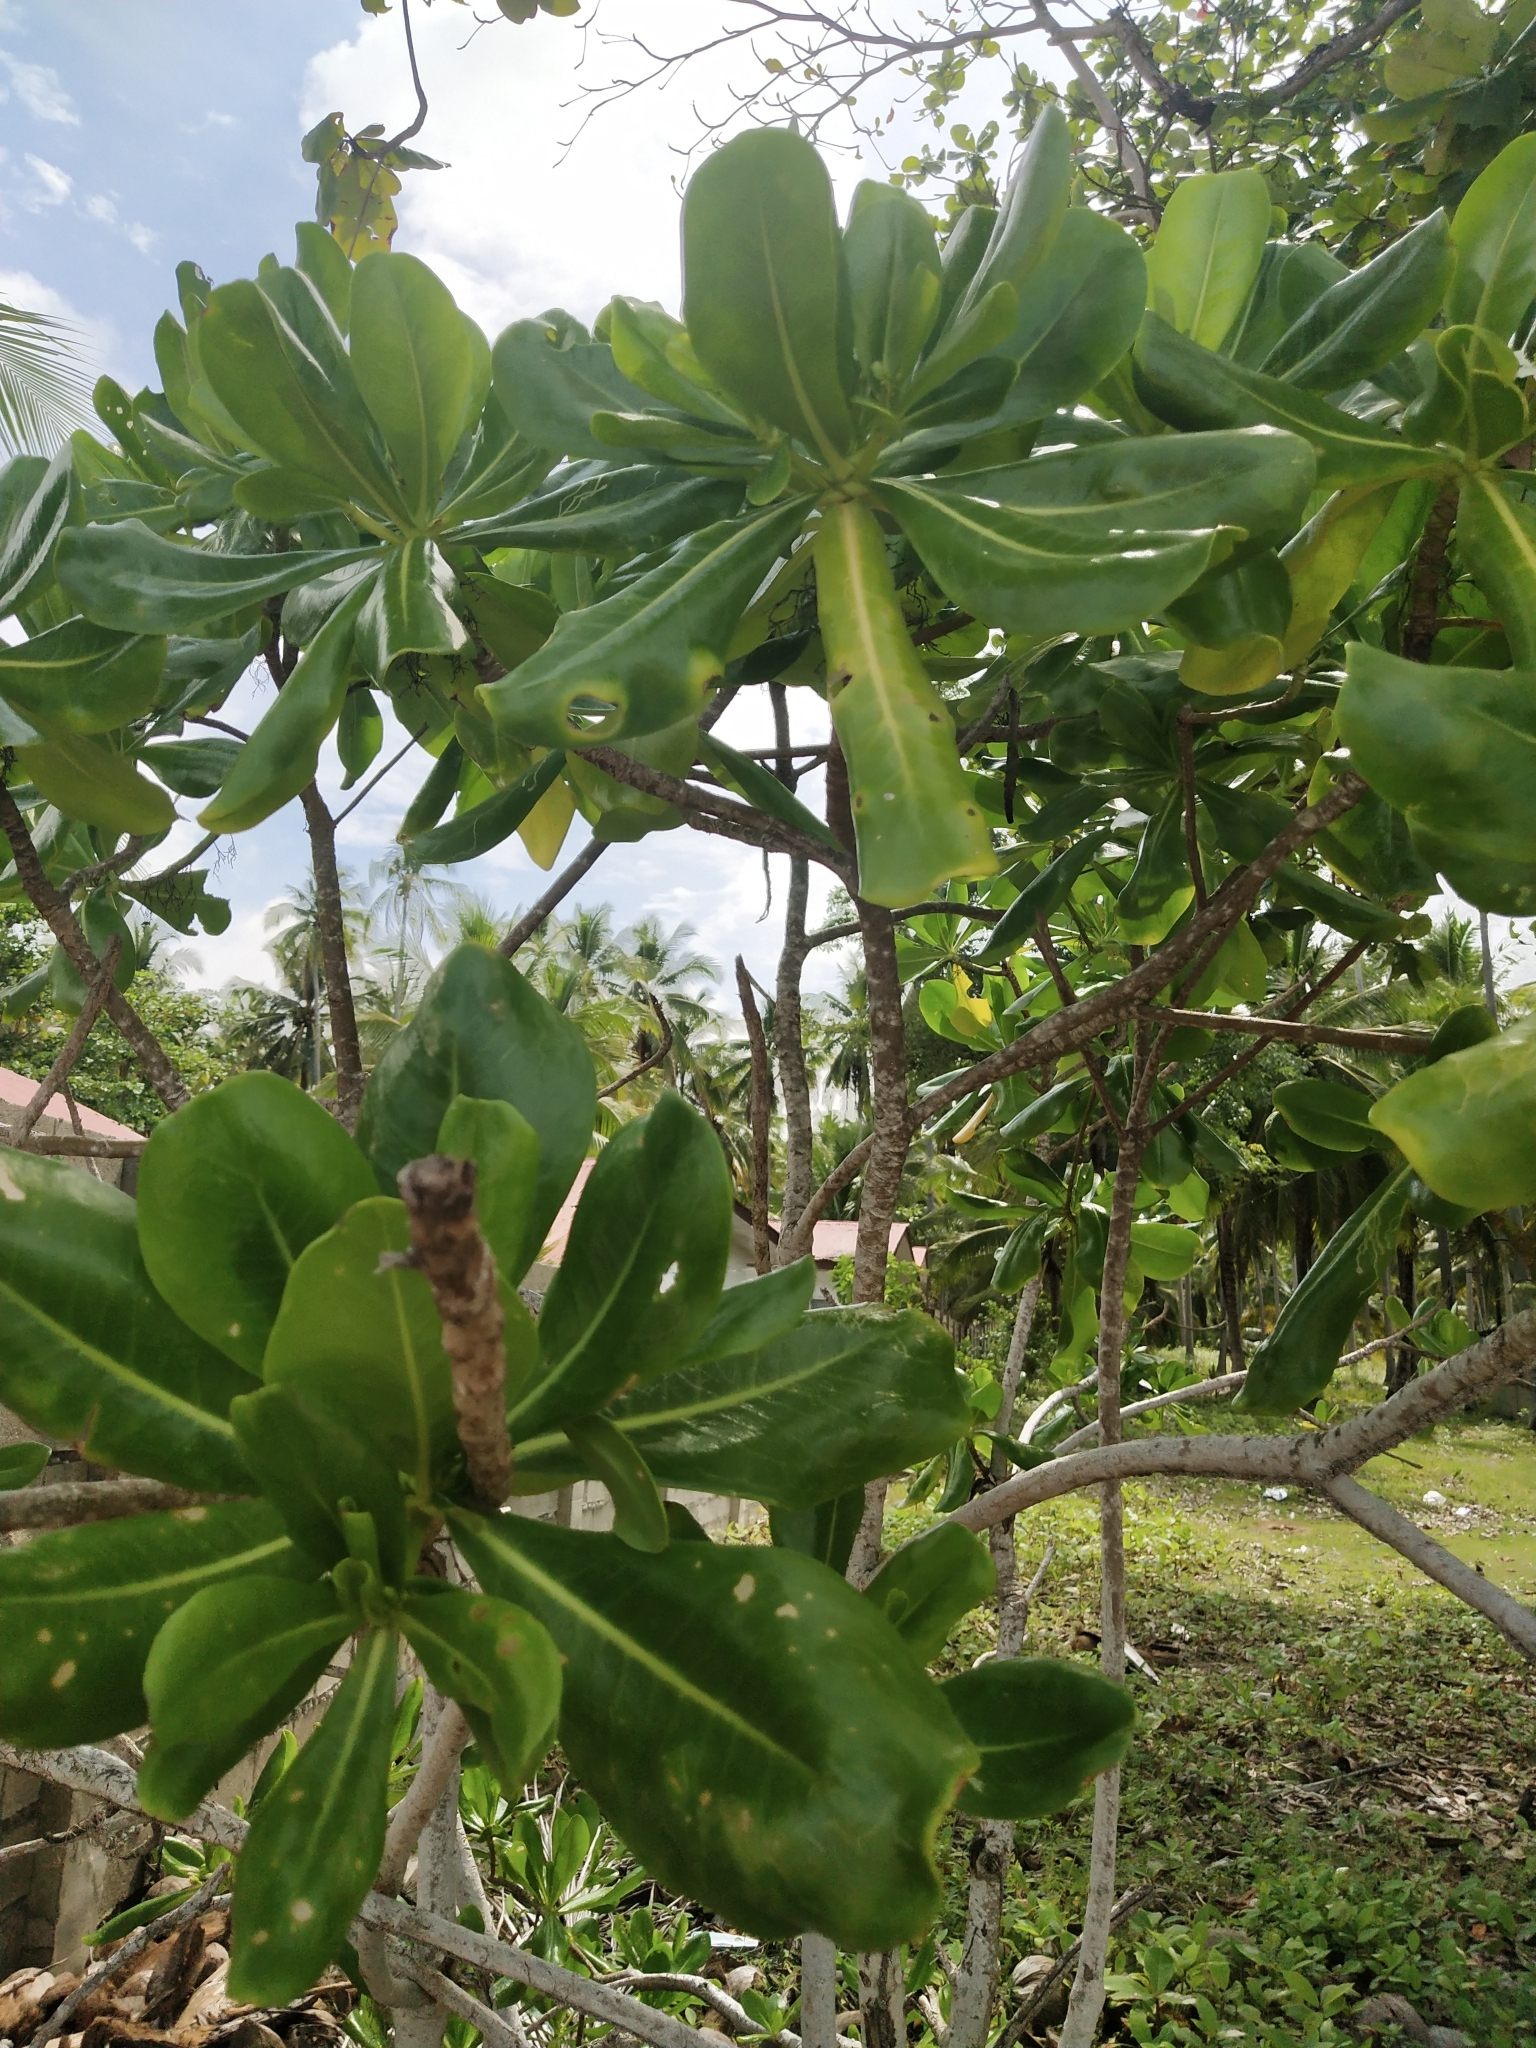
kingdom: Plantae
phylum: Tracheophyta
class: Magnoliopsida
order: Asterales
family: Goodeniaceae
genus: Scaevola
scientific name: Scaevola taccada
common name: Sea lettucetree
